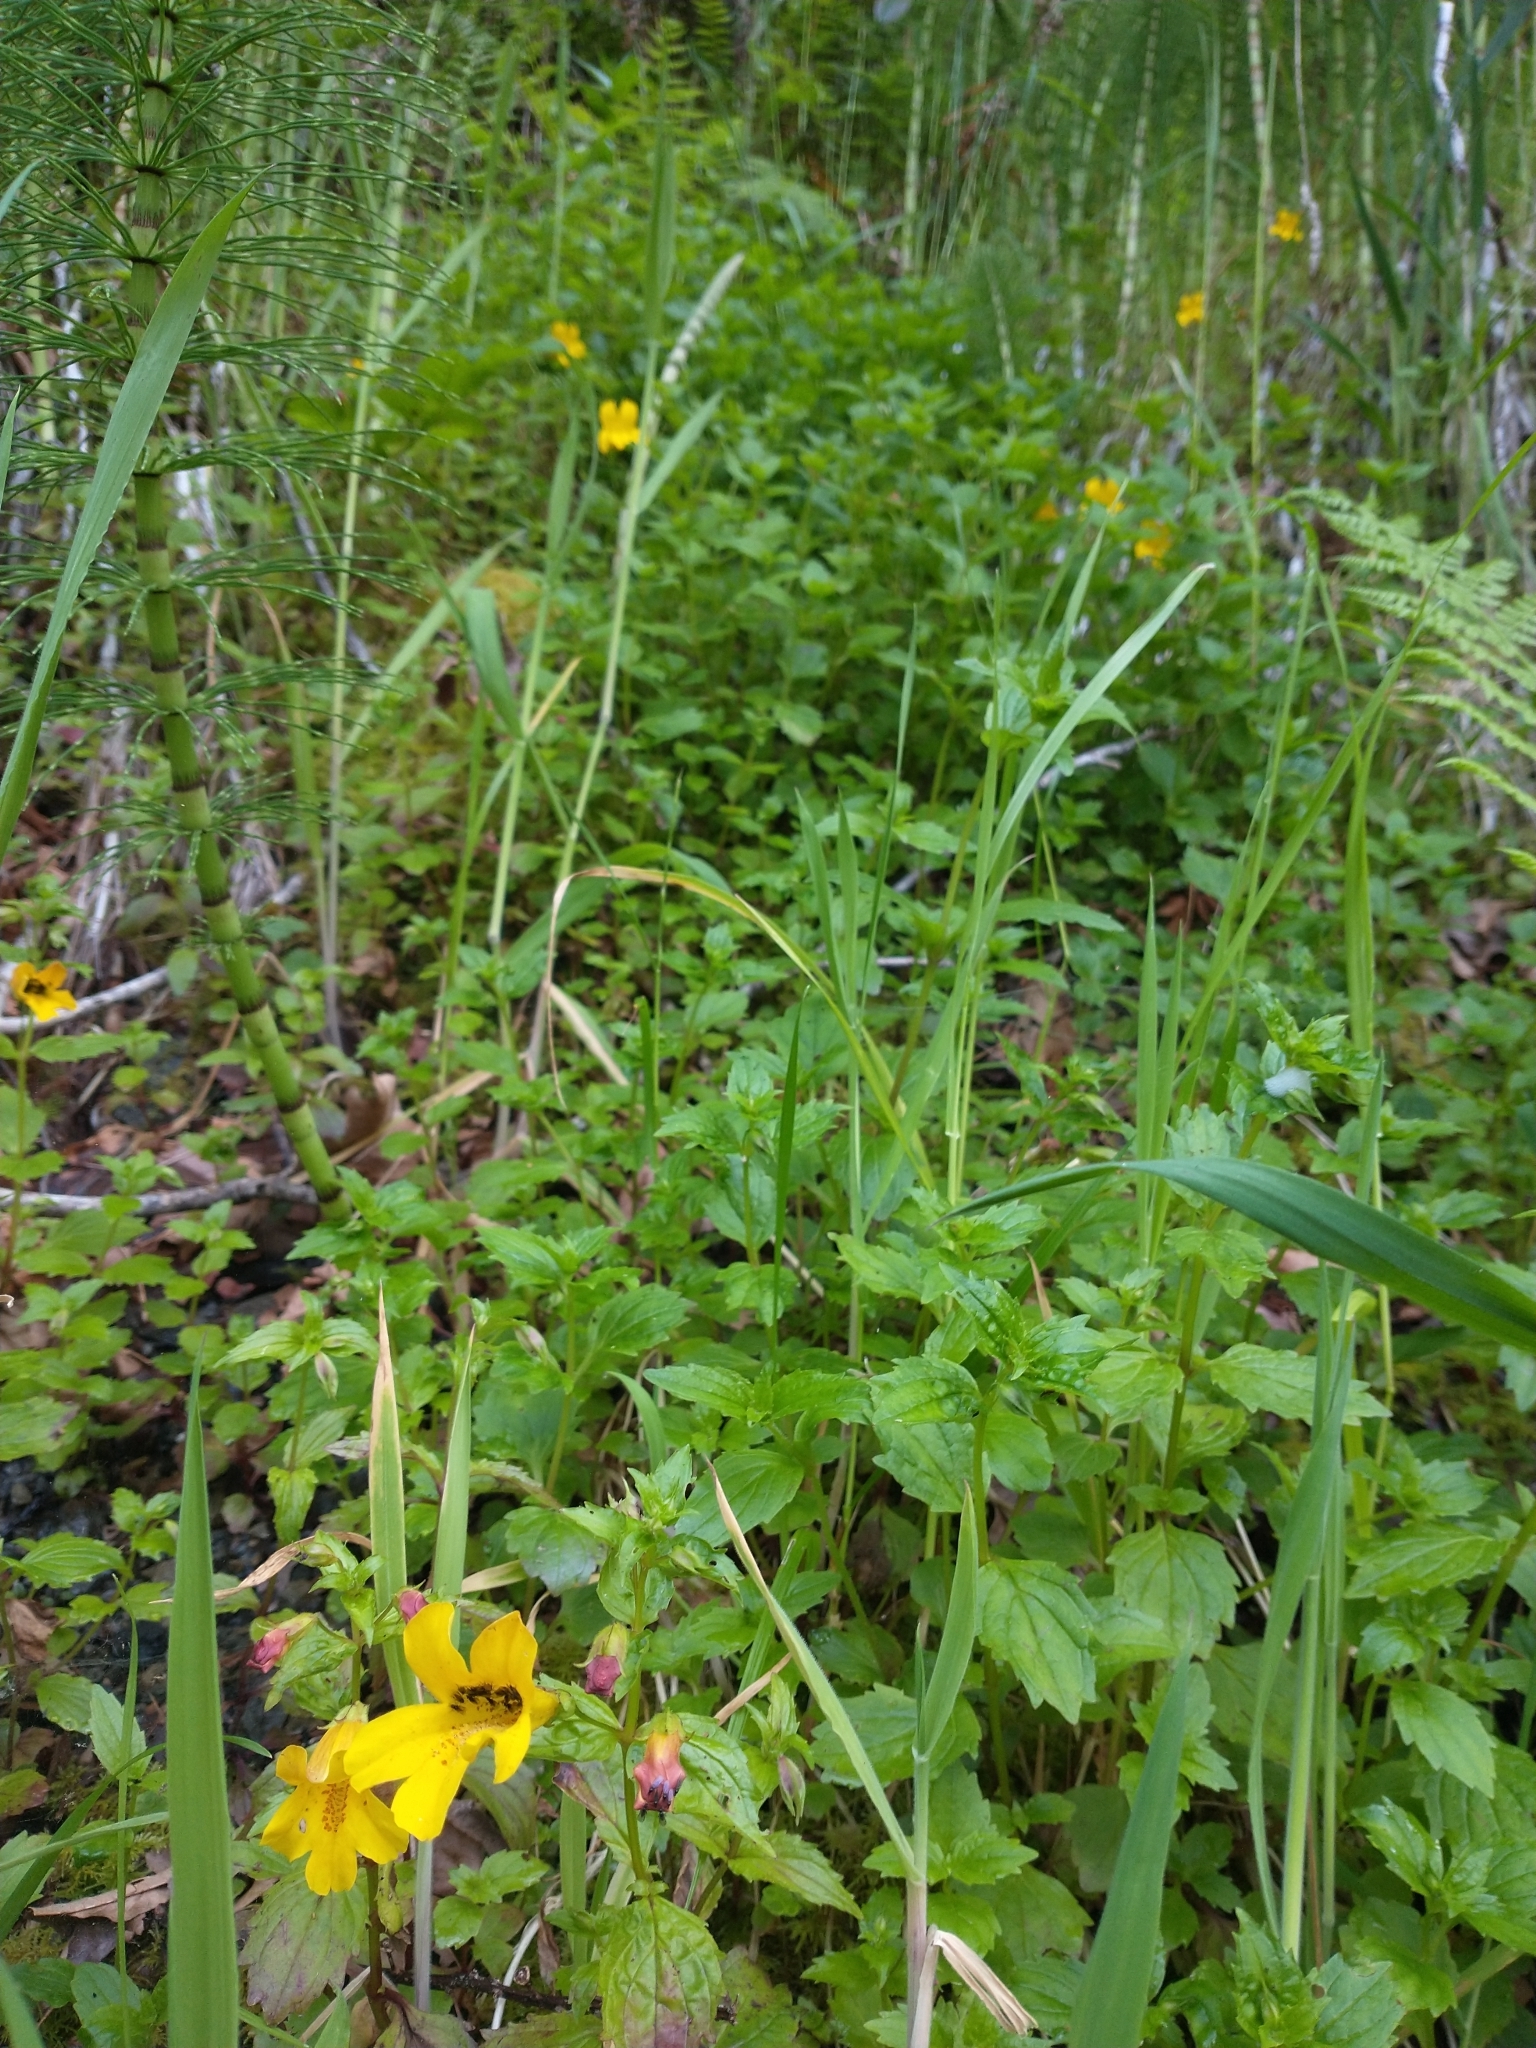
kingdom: Plantae
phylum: Tracheophyta
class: Magnoliopsida
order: Lamiales
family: Phrymaceae
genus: Erythranthe
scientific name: Erythranthe dentata
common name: Coastal monkeyflower
